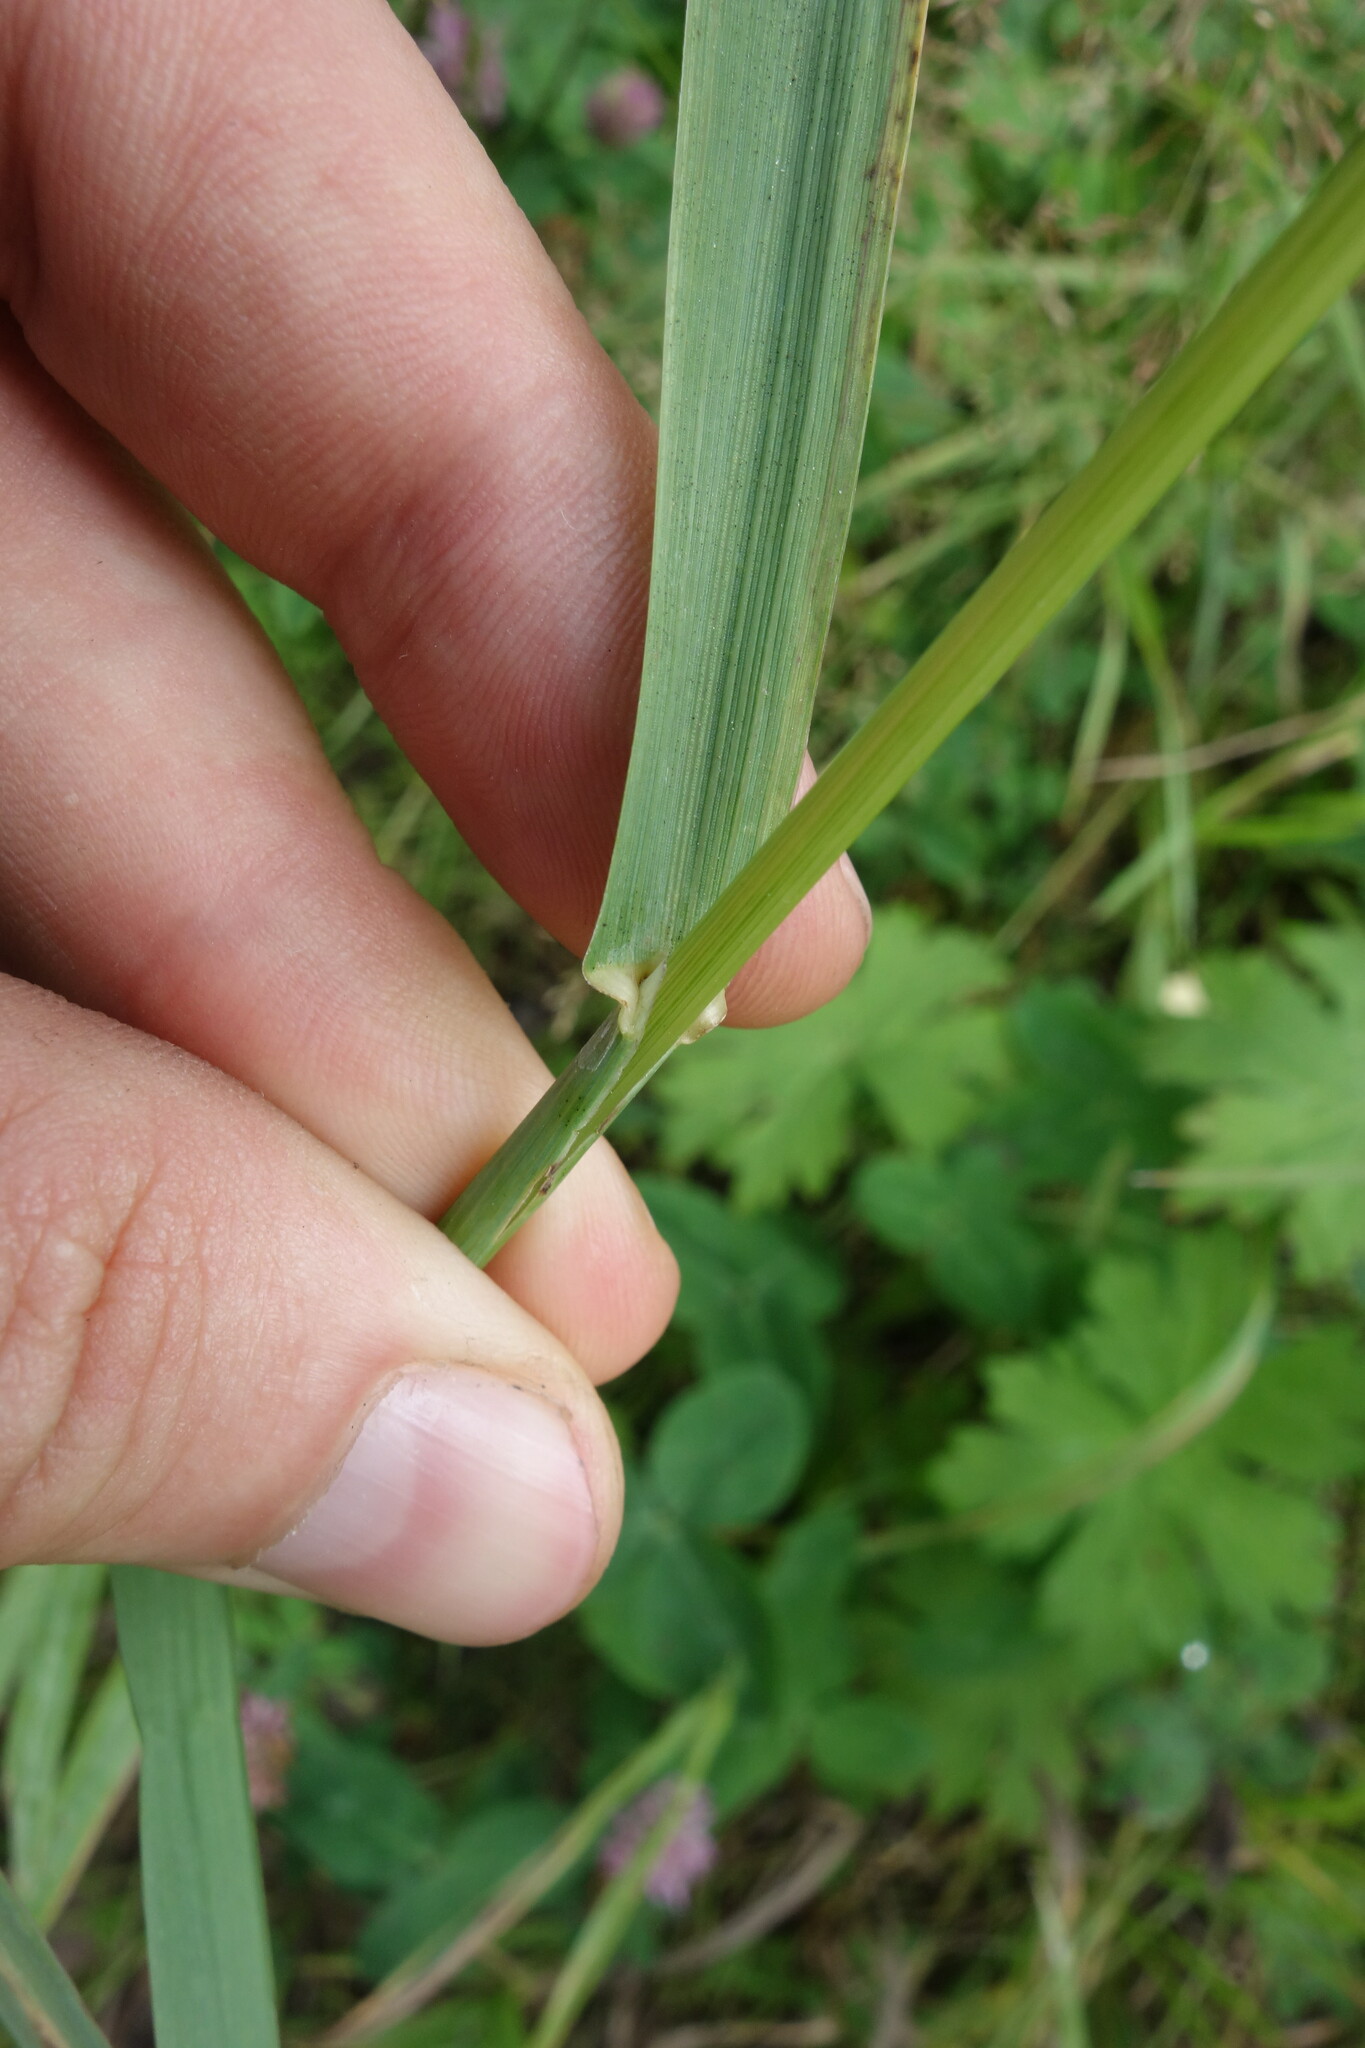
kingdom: Plantae
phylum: Tracheophyta
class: Liliopsida
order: Poales
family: Poaceae
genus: Bromus
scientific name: Bromus inermis
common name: Smooth brome
